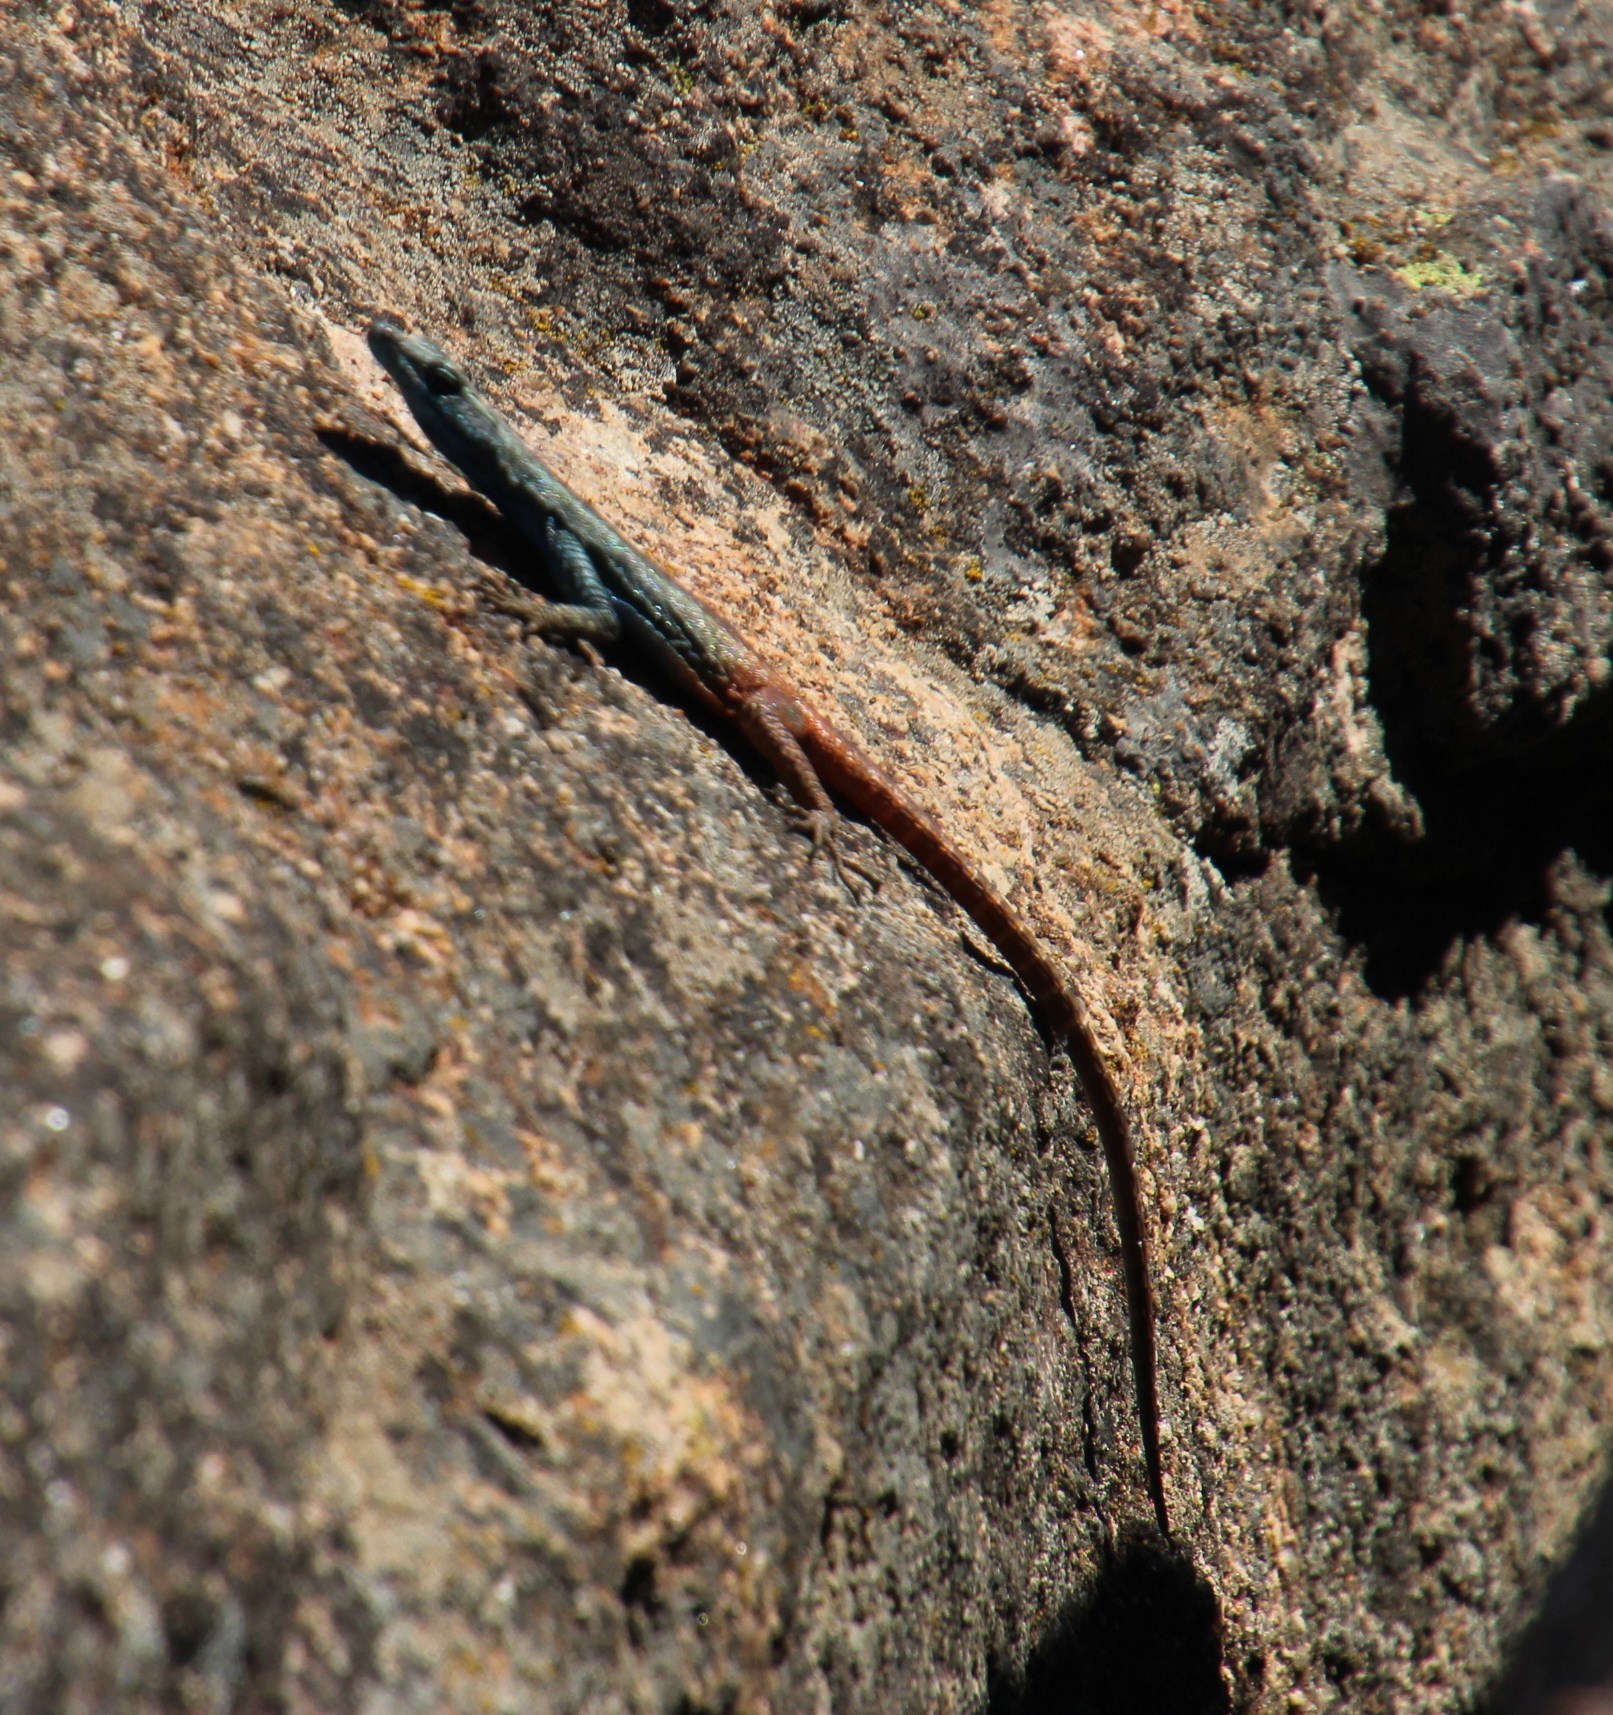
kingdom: Animalia
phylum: Chordata
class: Squamata
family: Cordylidae
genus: Platysaurus
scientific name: Platysaurus capensis
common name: Namaqua flat lizard
